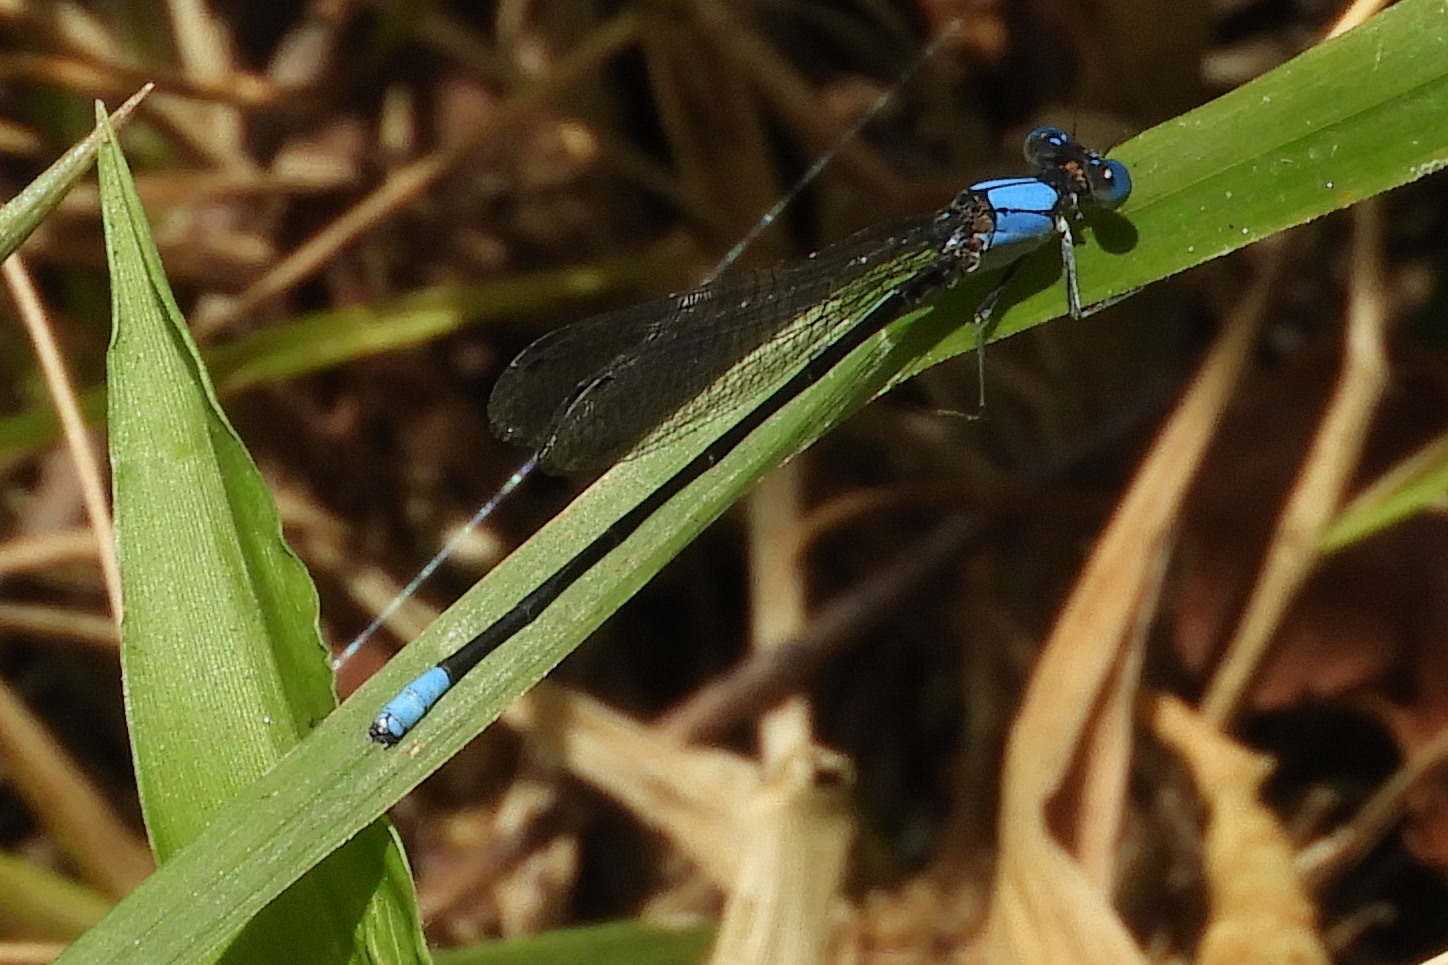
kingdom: Animalia
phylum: Arthropoda
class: Insecta
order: Odonata
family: Coenagrionidae
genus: Argia
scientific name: Argia apicalis
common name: Blue-fronted dancer
